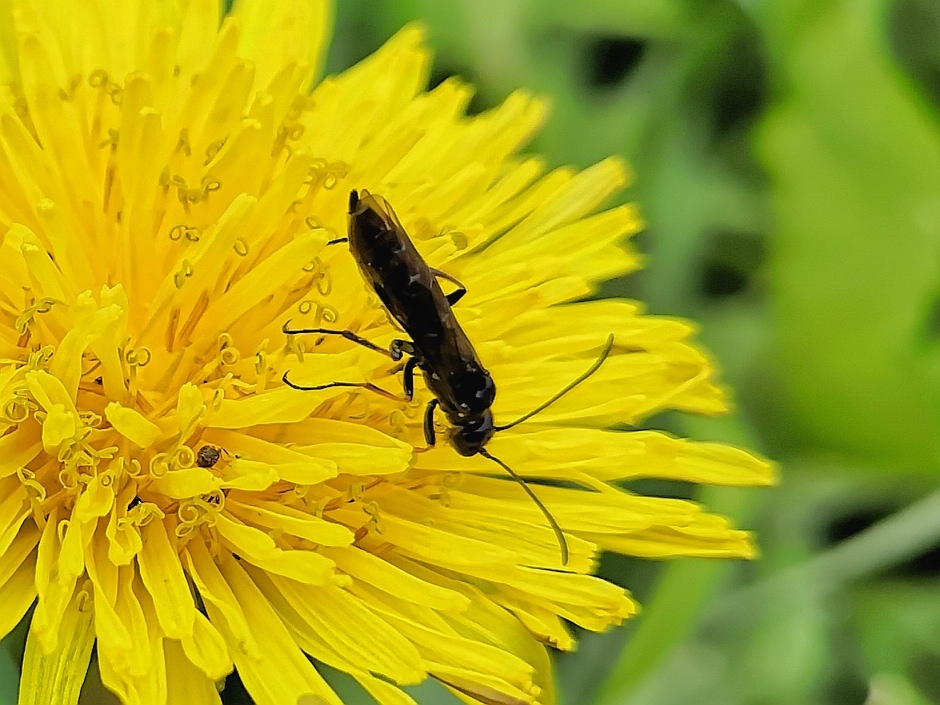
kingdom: Animalia
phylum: Arthropoda
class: Insecta
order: Hymenoptera
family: Cephidae
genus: Cephus
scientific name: Cephus pygmeus
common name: Wasp
